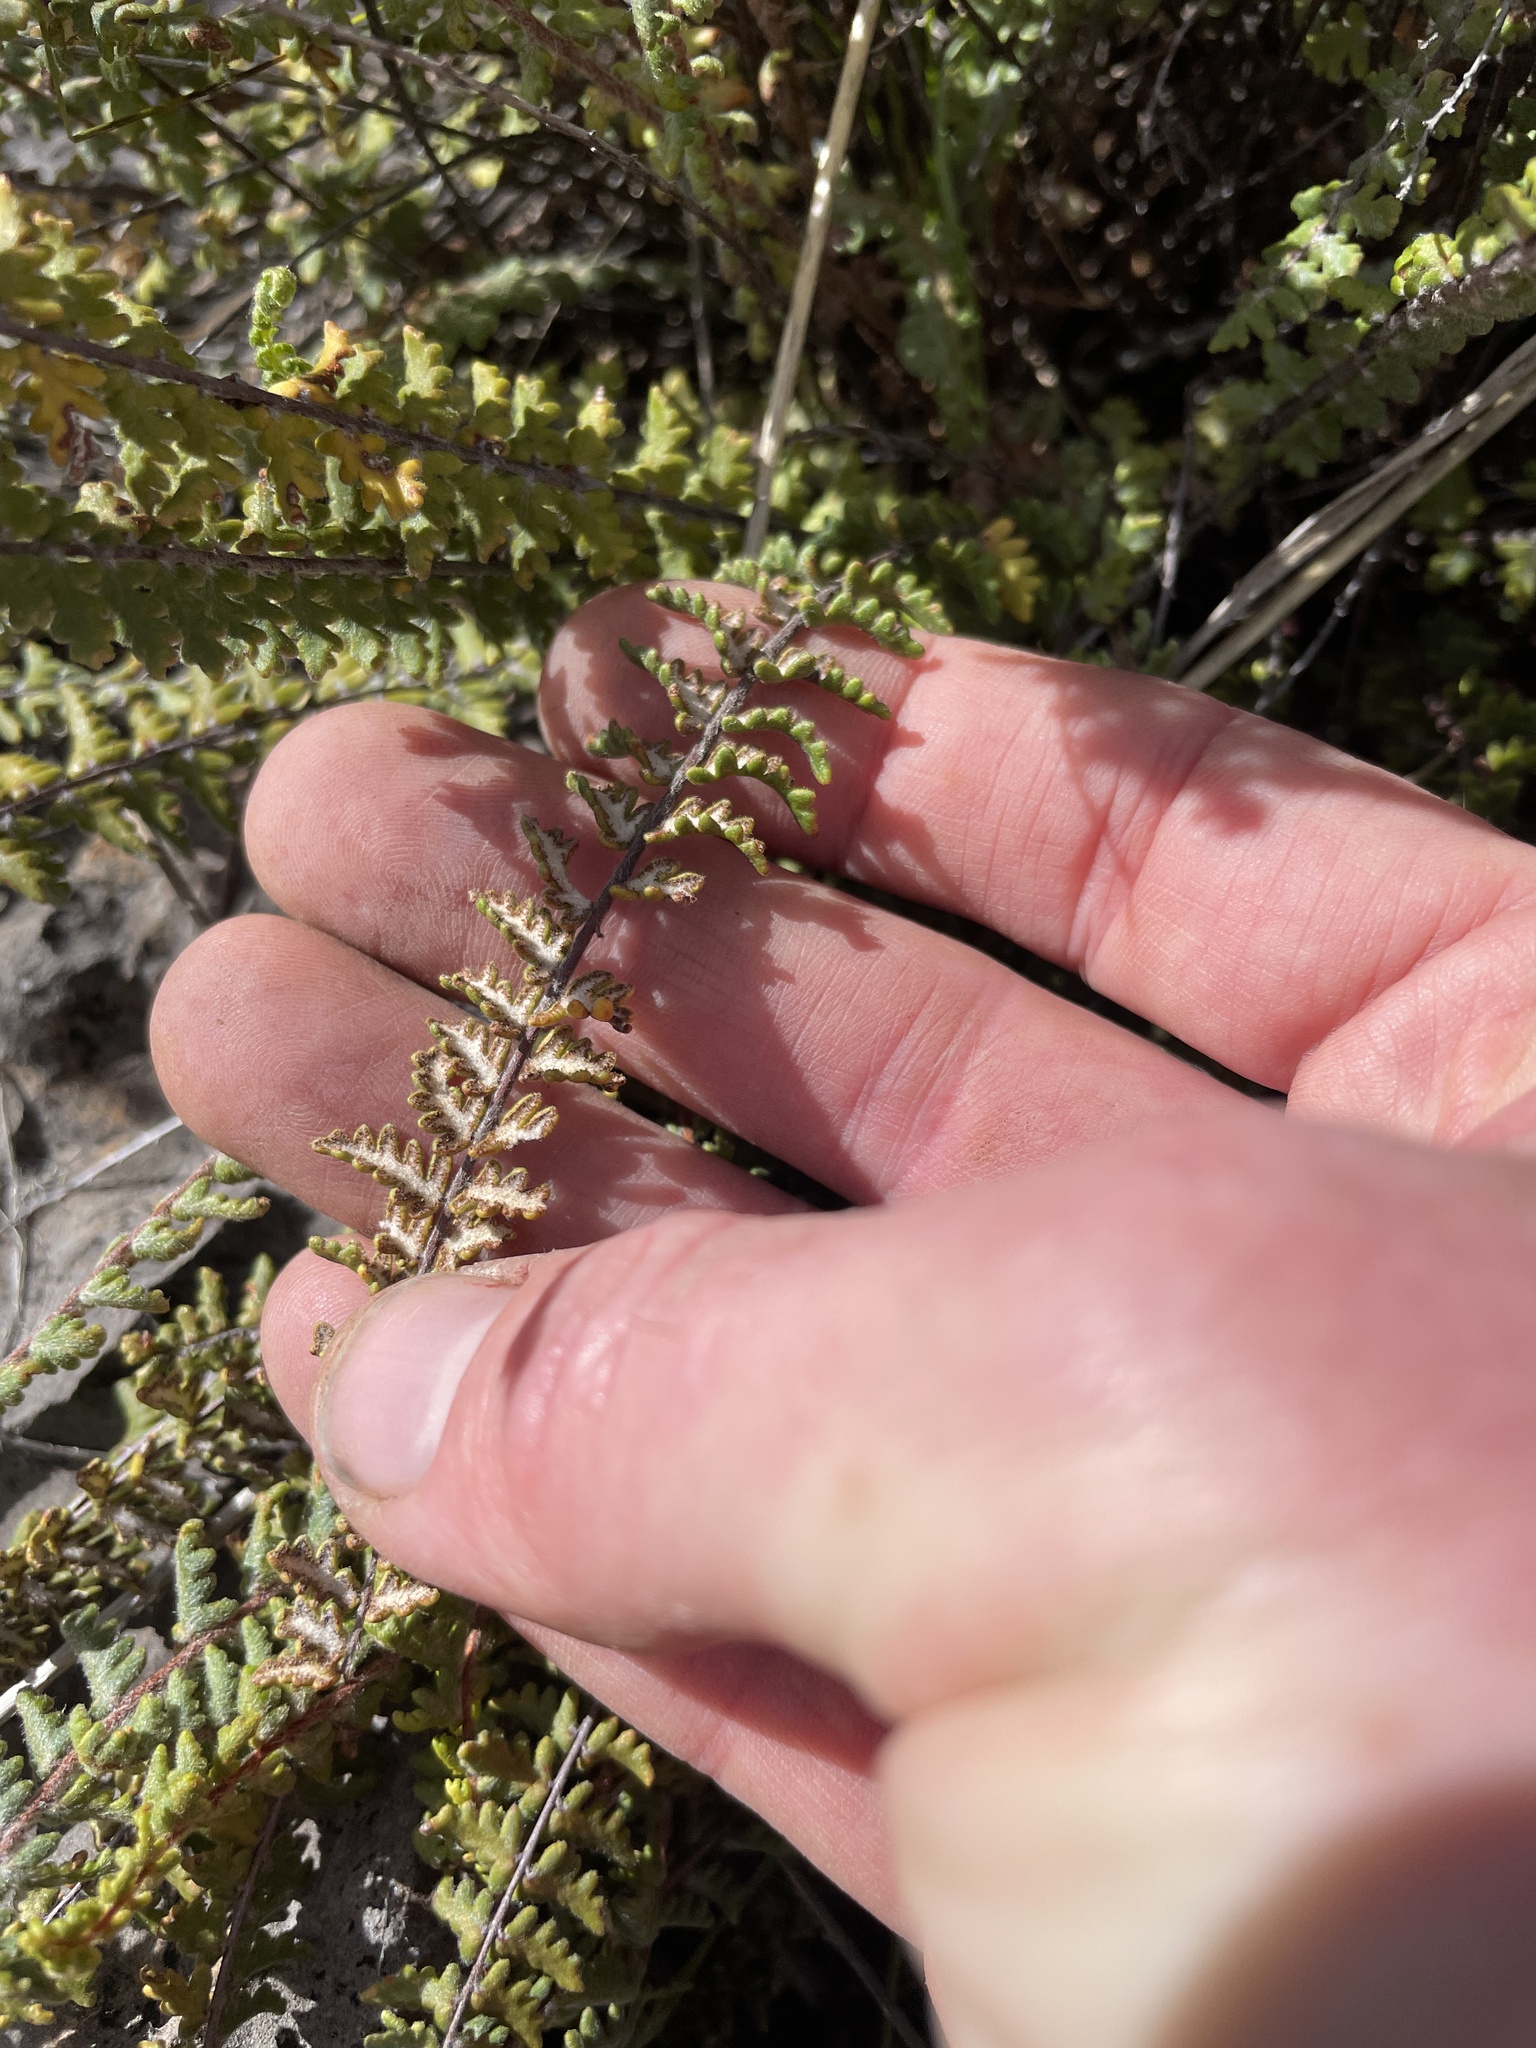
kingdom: Plantae
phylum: Tracheophyta
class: Polypodiopsida
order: Polypodiales
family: Pteridaceae
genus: Myriopteris
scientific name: Myriopteris aurea
